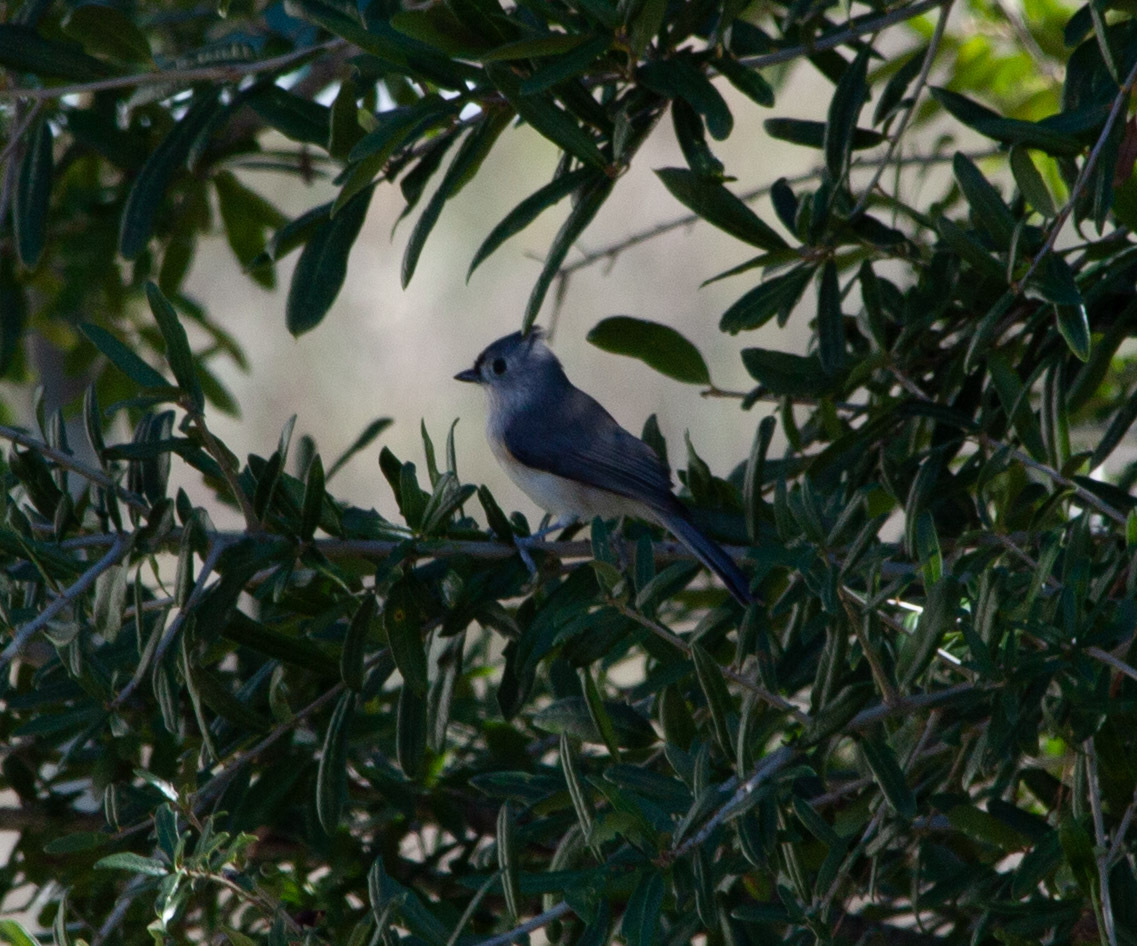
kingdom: Animalia
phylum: Chordata
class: Aves
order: Passeriformes
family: Paridae
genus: Baeolophus
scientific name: Baeolophus bicolor
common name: Tufted titmouse
